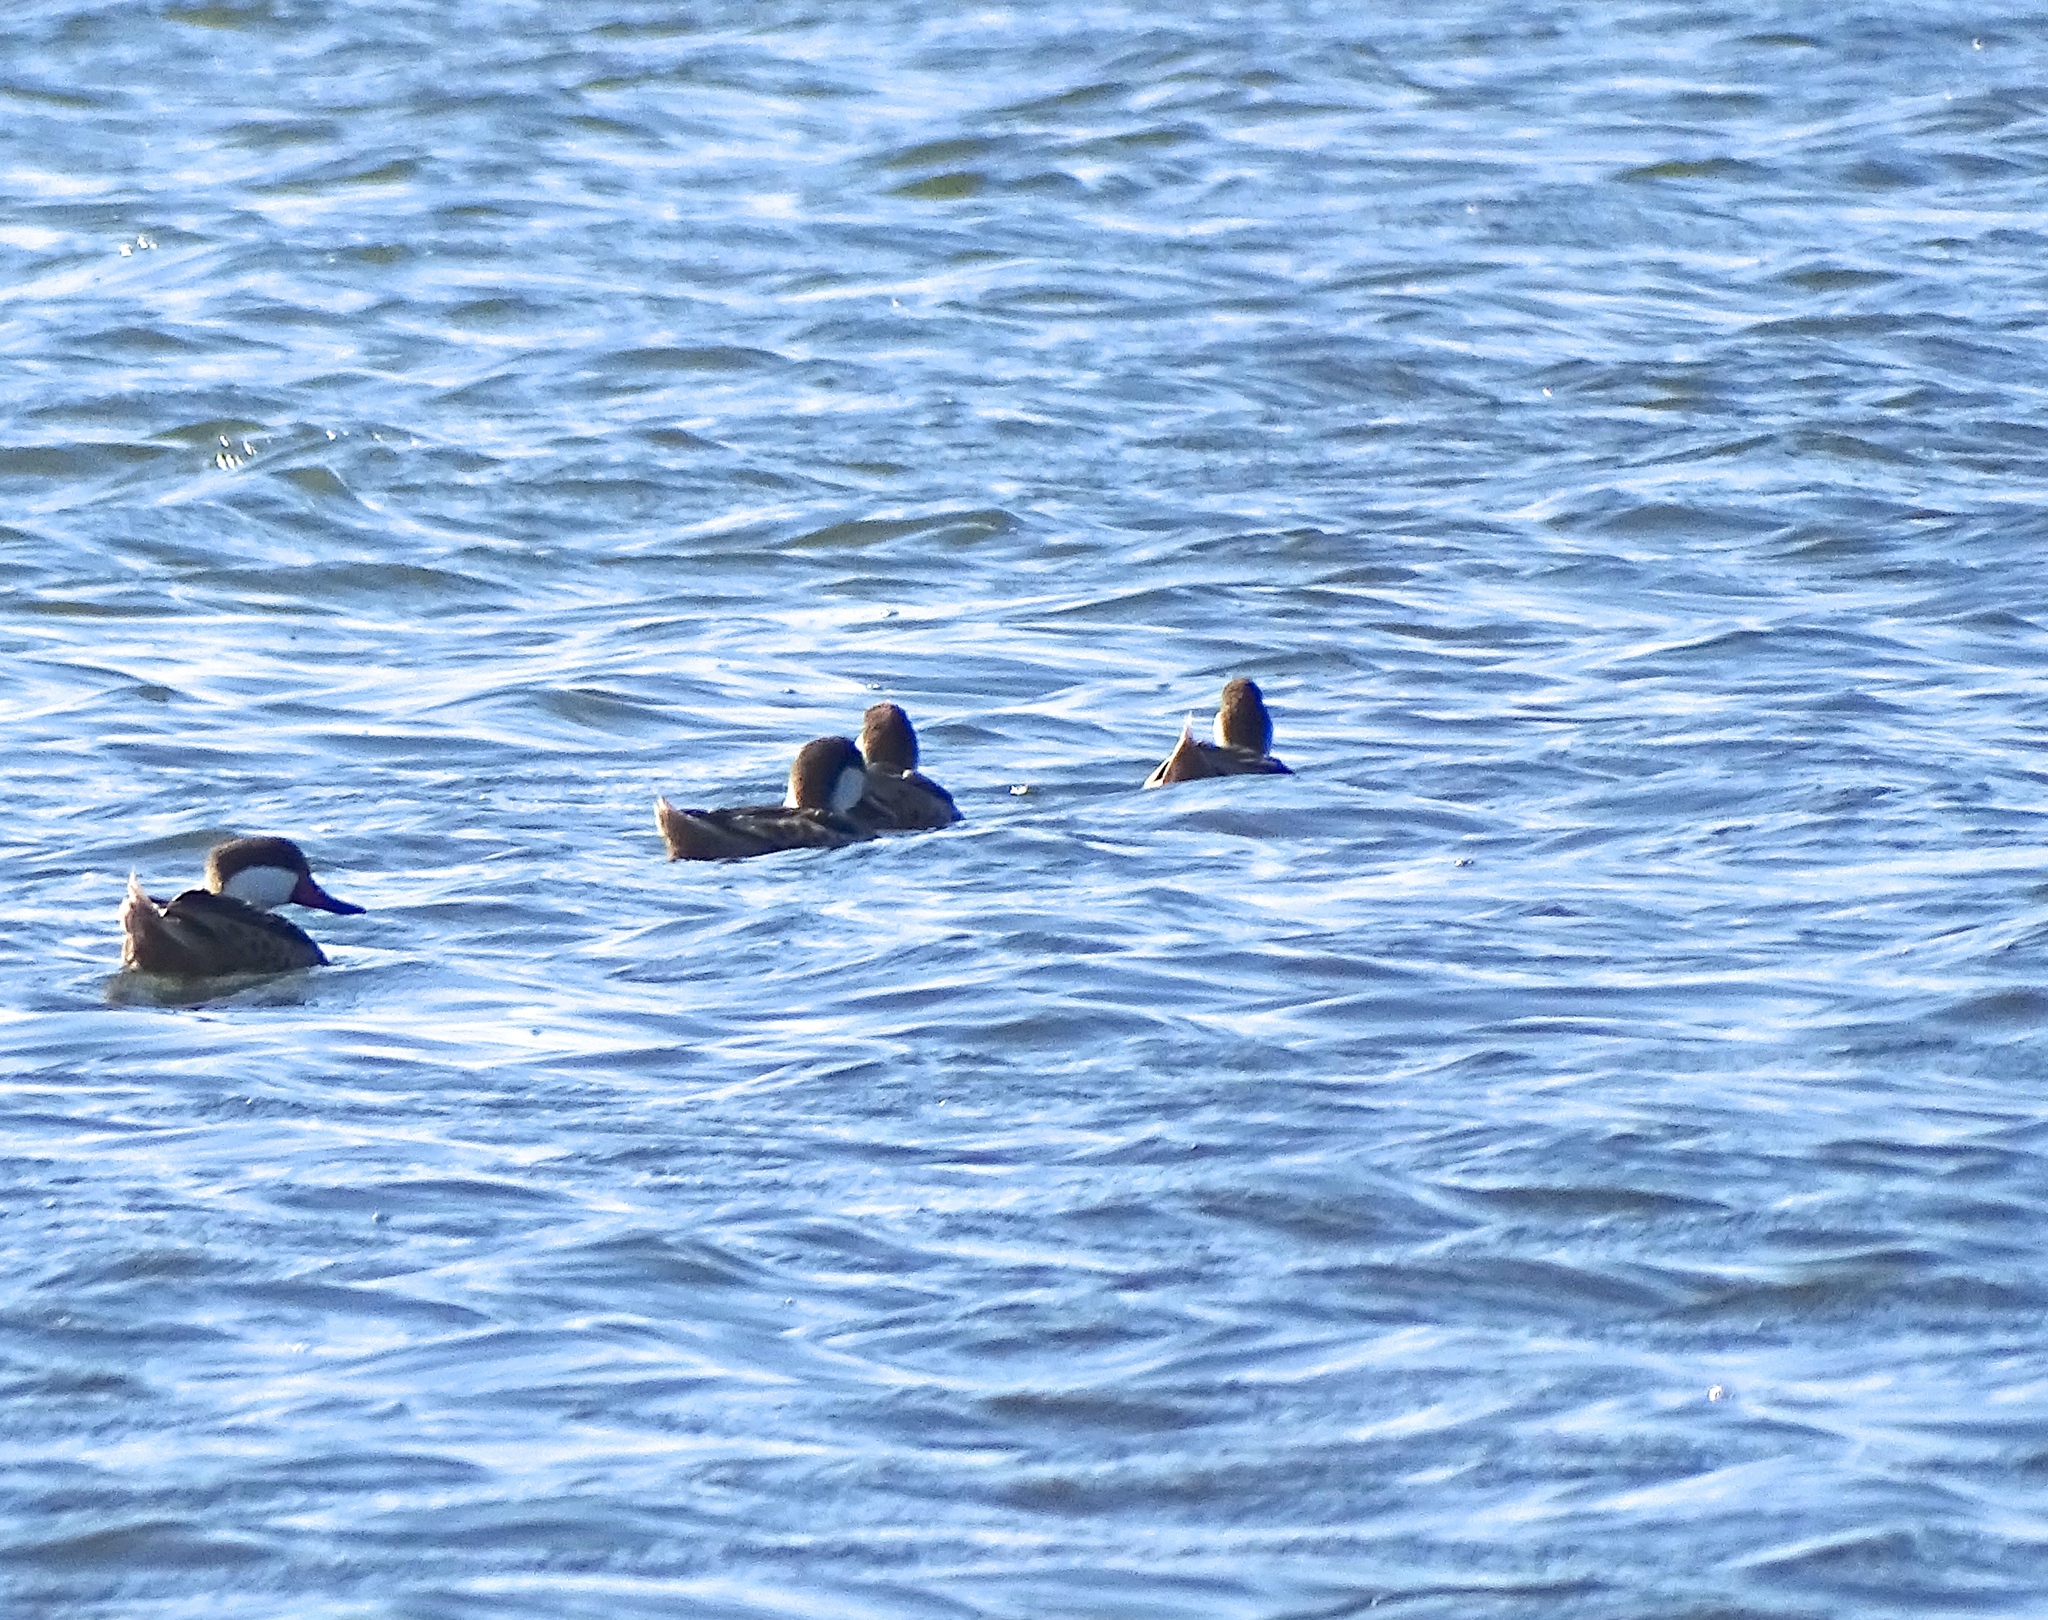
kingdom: Animalia
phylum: Chordata
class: Aves
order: Anseriformes
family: Anatidae
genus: Anas
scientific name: Anas bahamensis
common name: White-cheeked pintail
